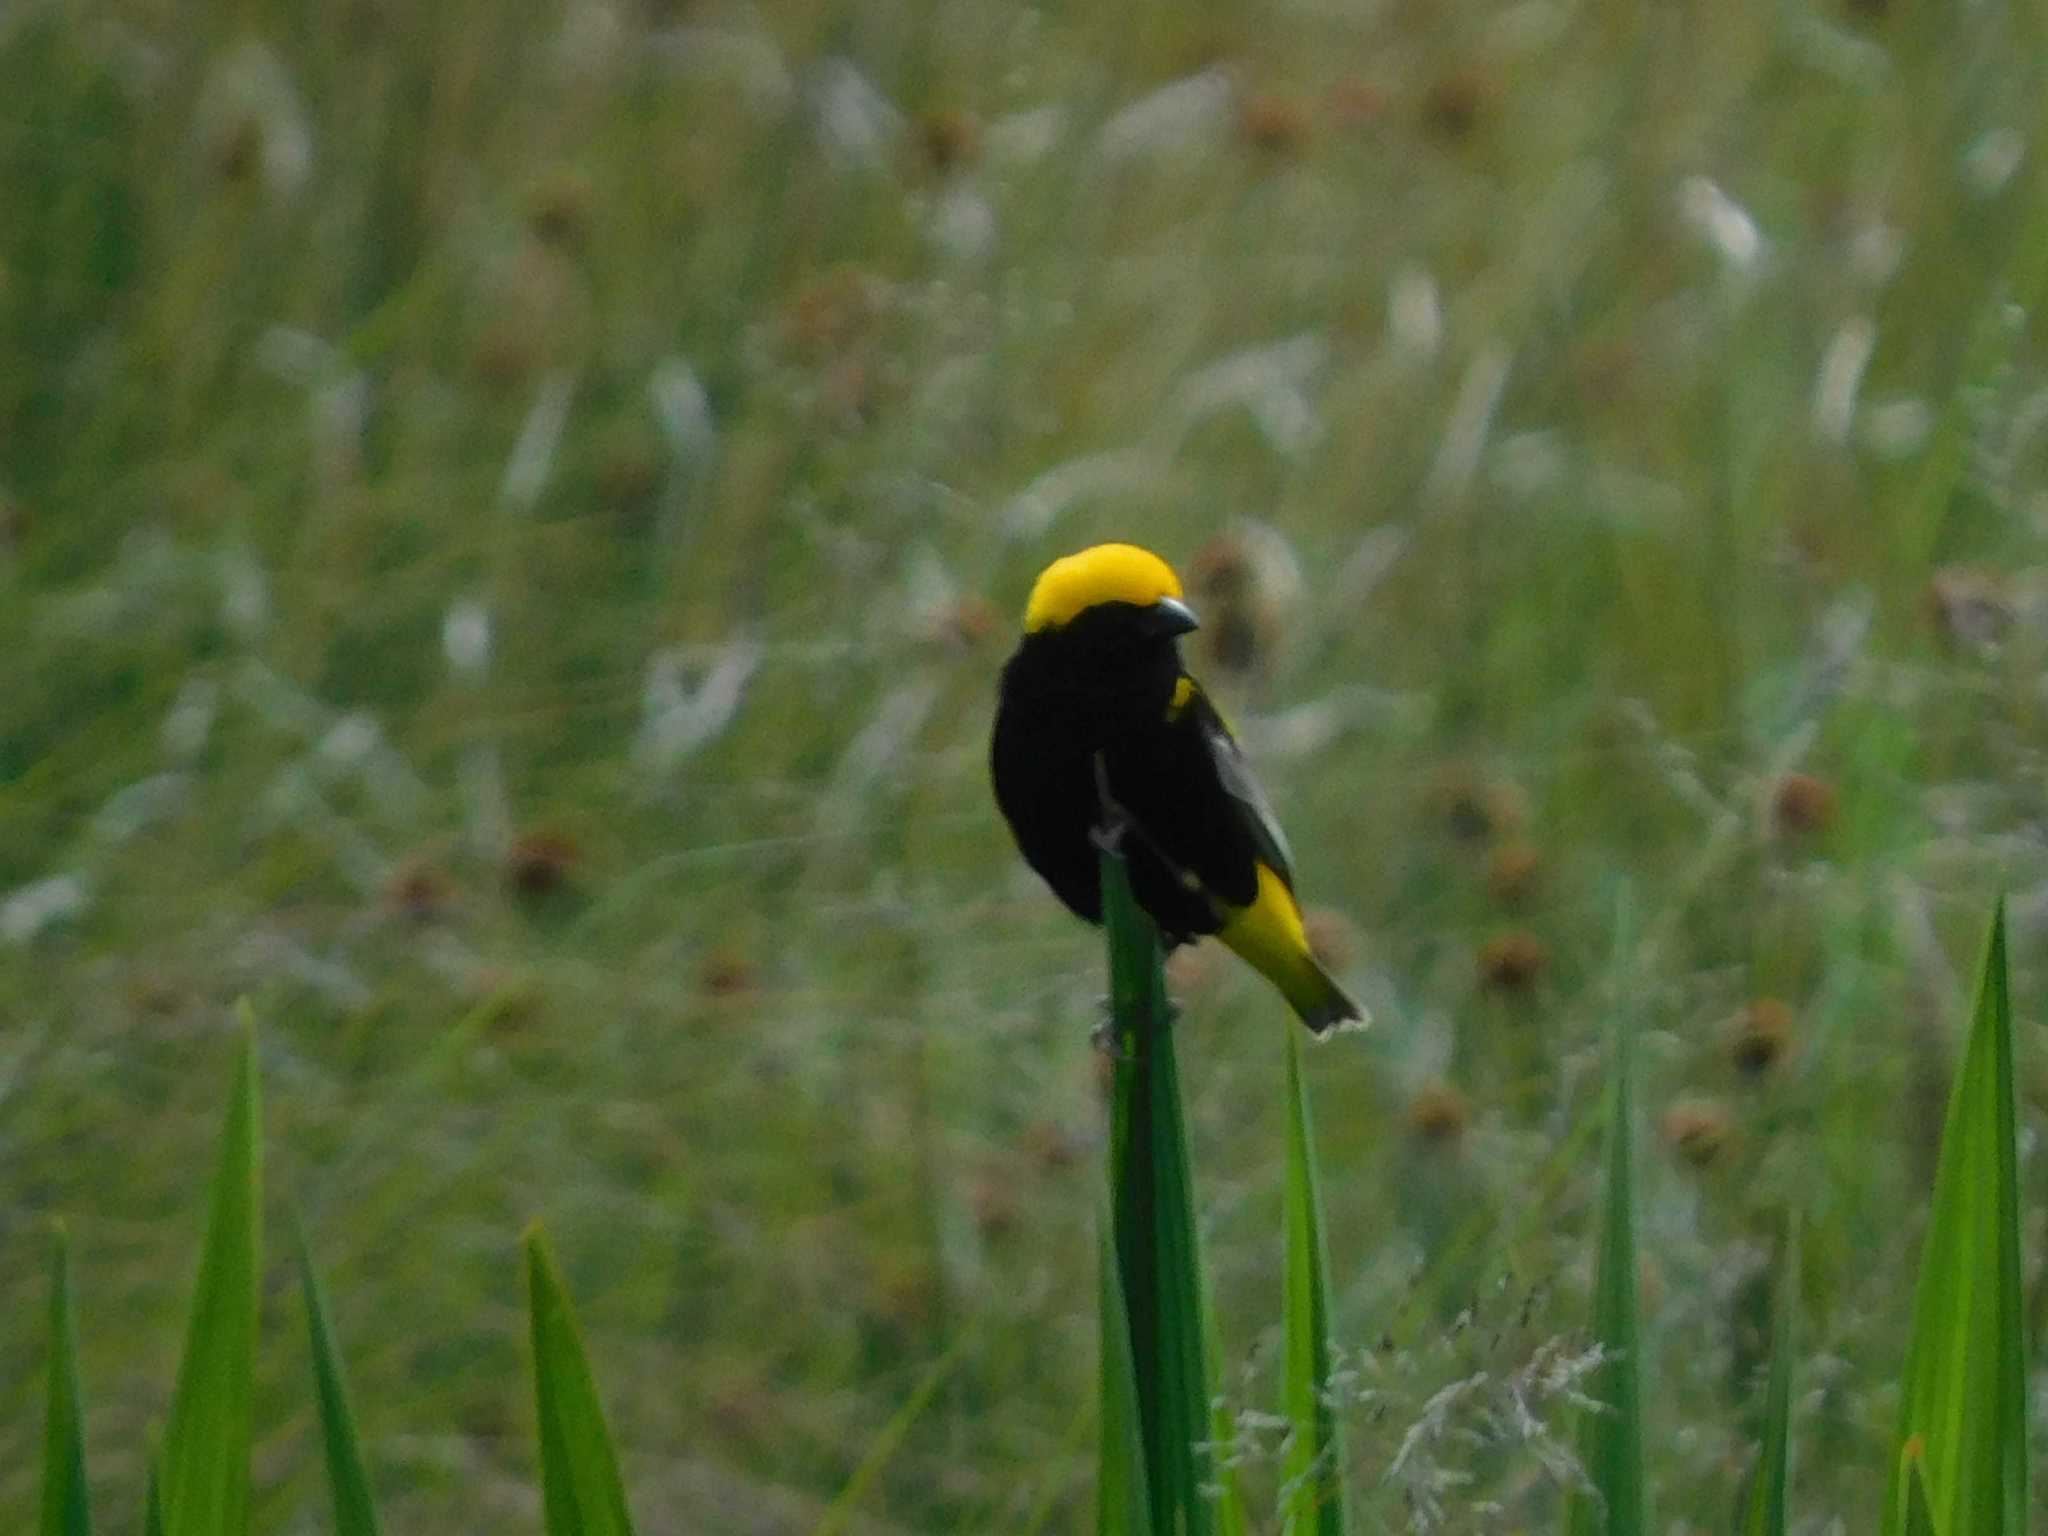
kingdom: Animalia
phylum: Chordata
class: Aves
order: Passeriformes
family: Ploceidae
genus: Euplectes
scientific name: Euplectes afer
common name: Yellow-crowned bishop
